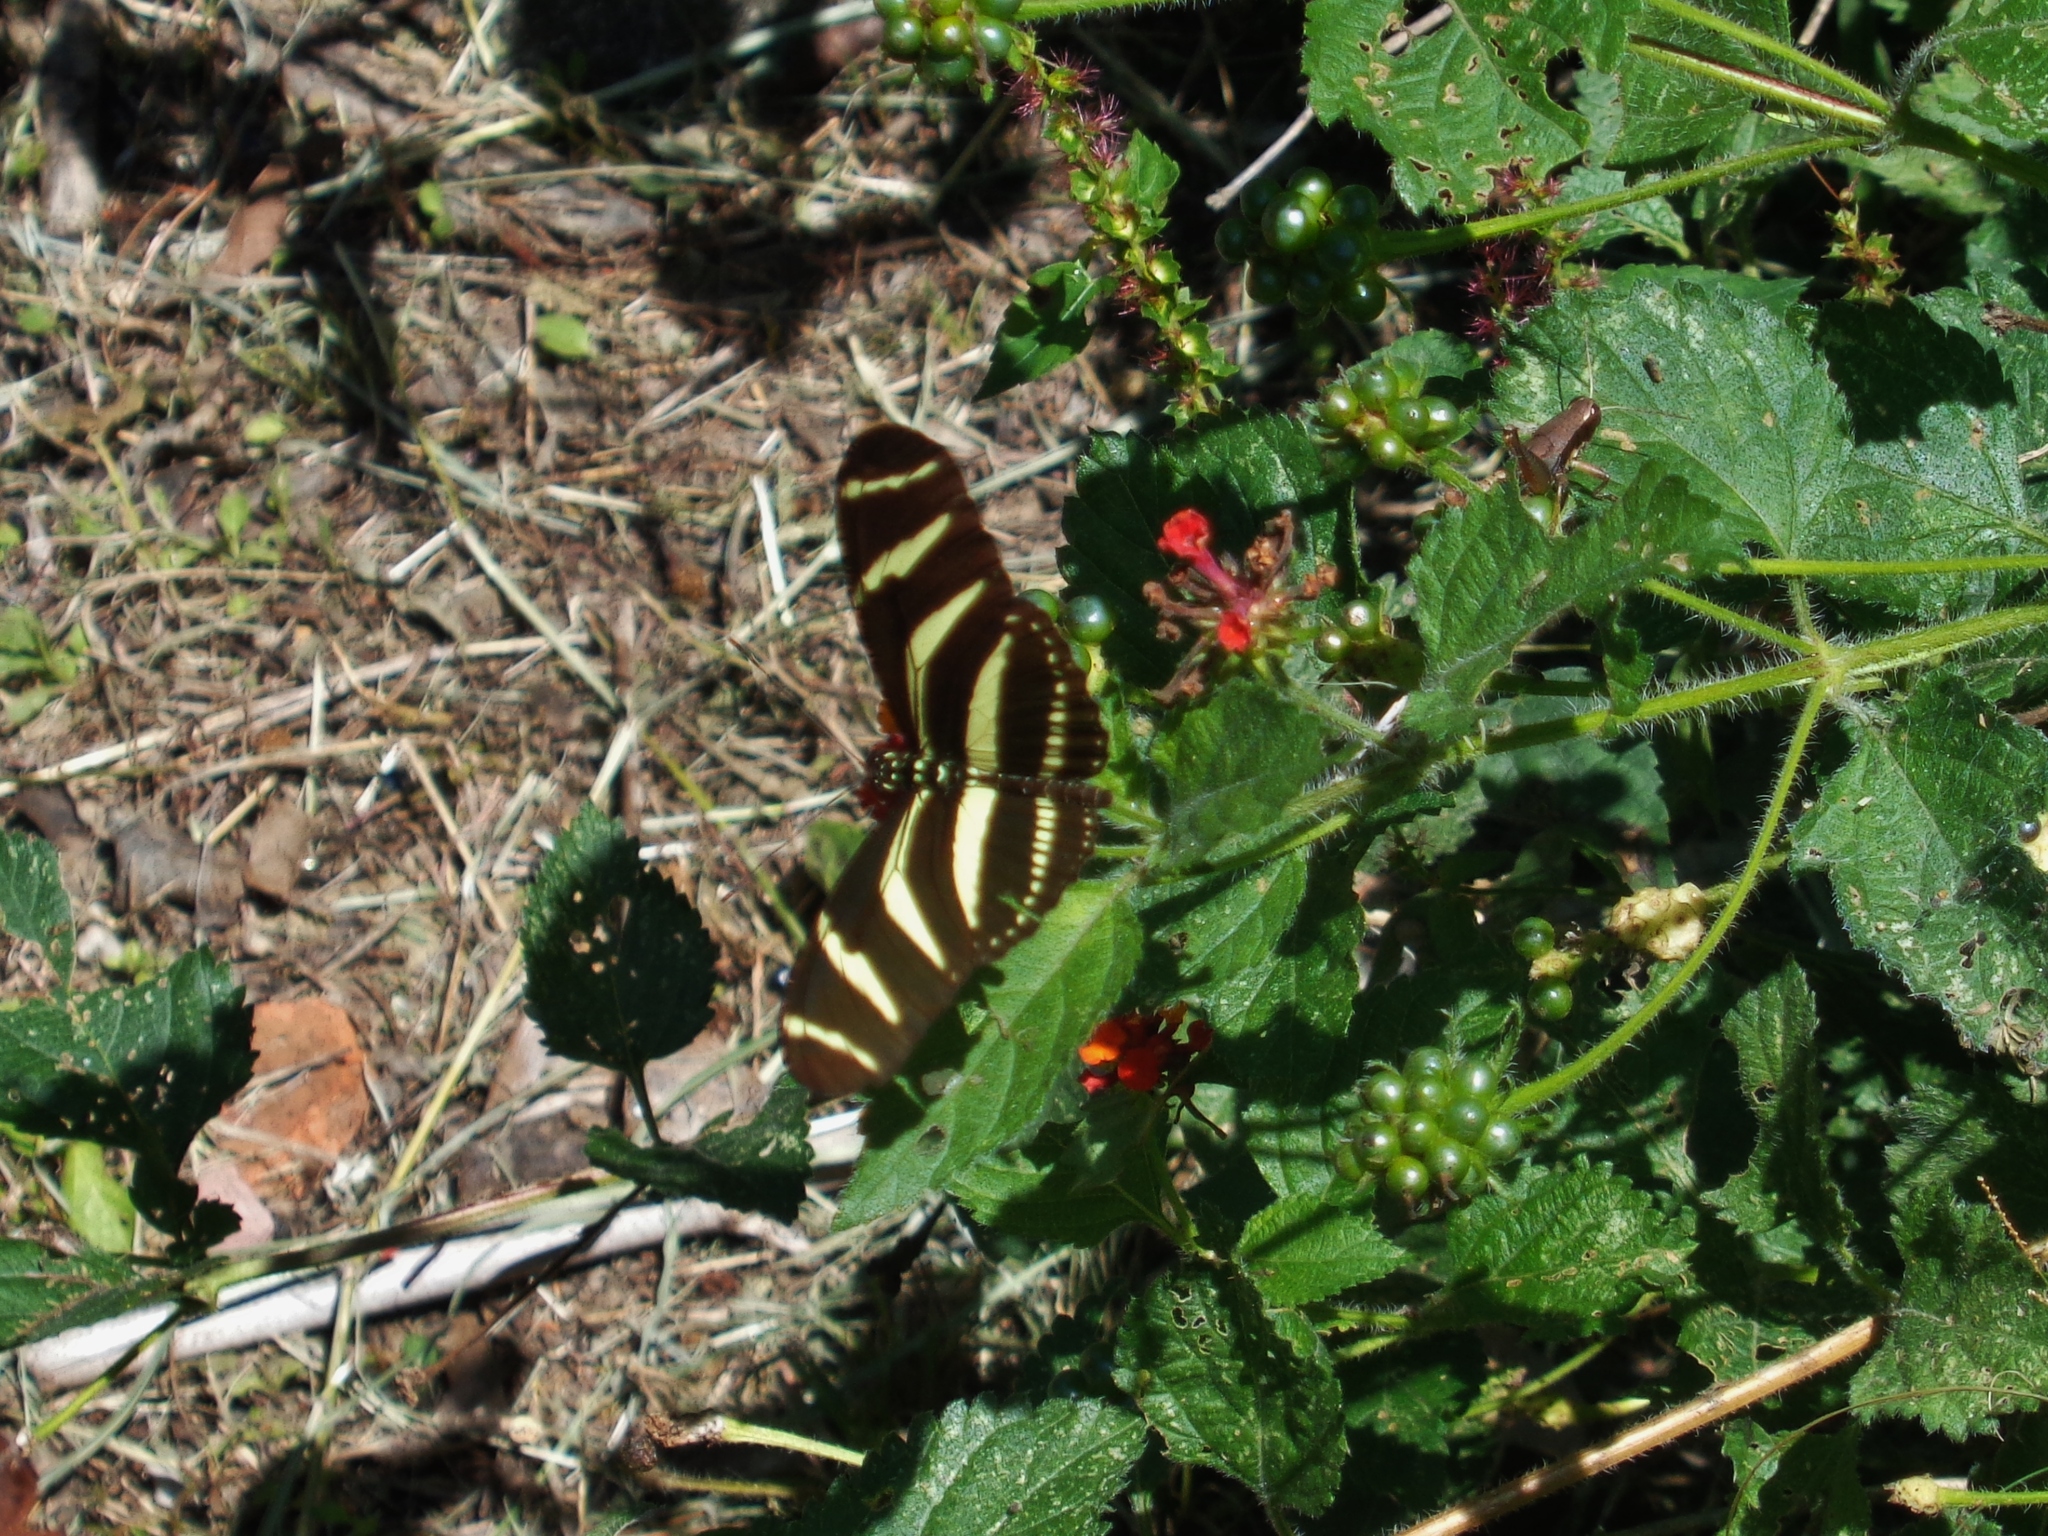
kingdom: Animalia
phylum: Arthropoda
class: Insecta
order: Lepidoptera
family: Nymphalidae
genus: Heliconius
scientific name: Heliconius charithonia
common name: Zebra long wing
